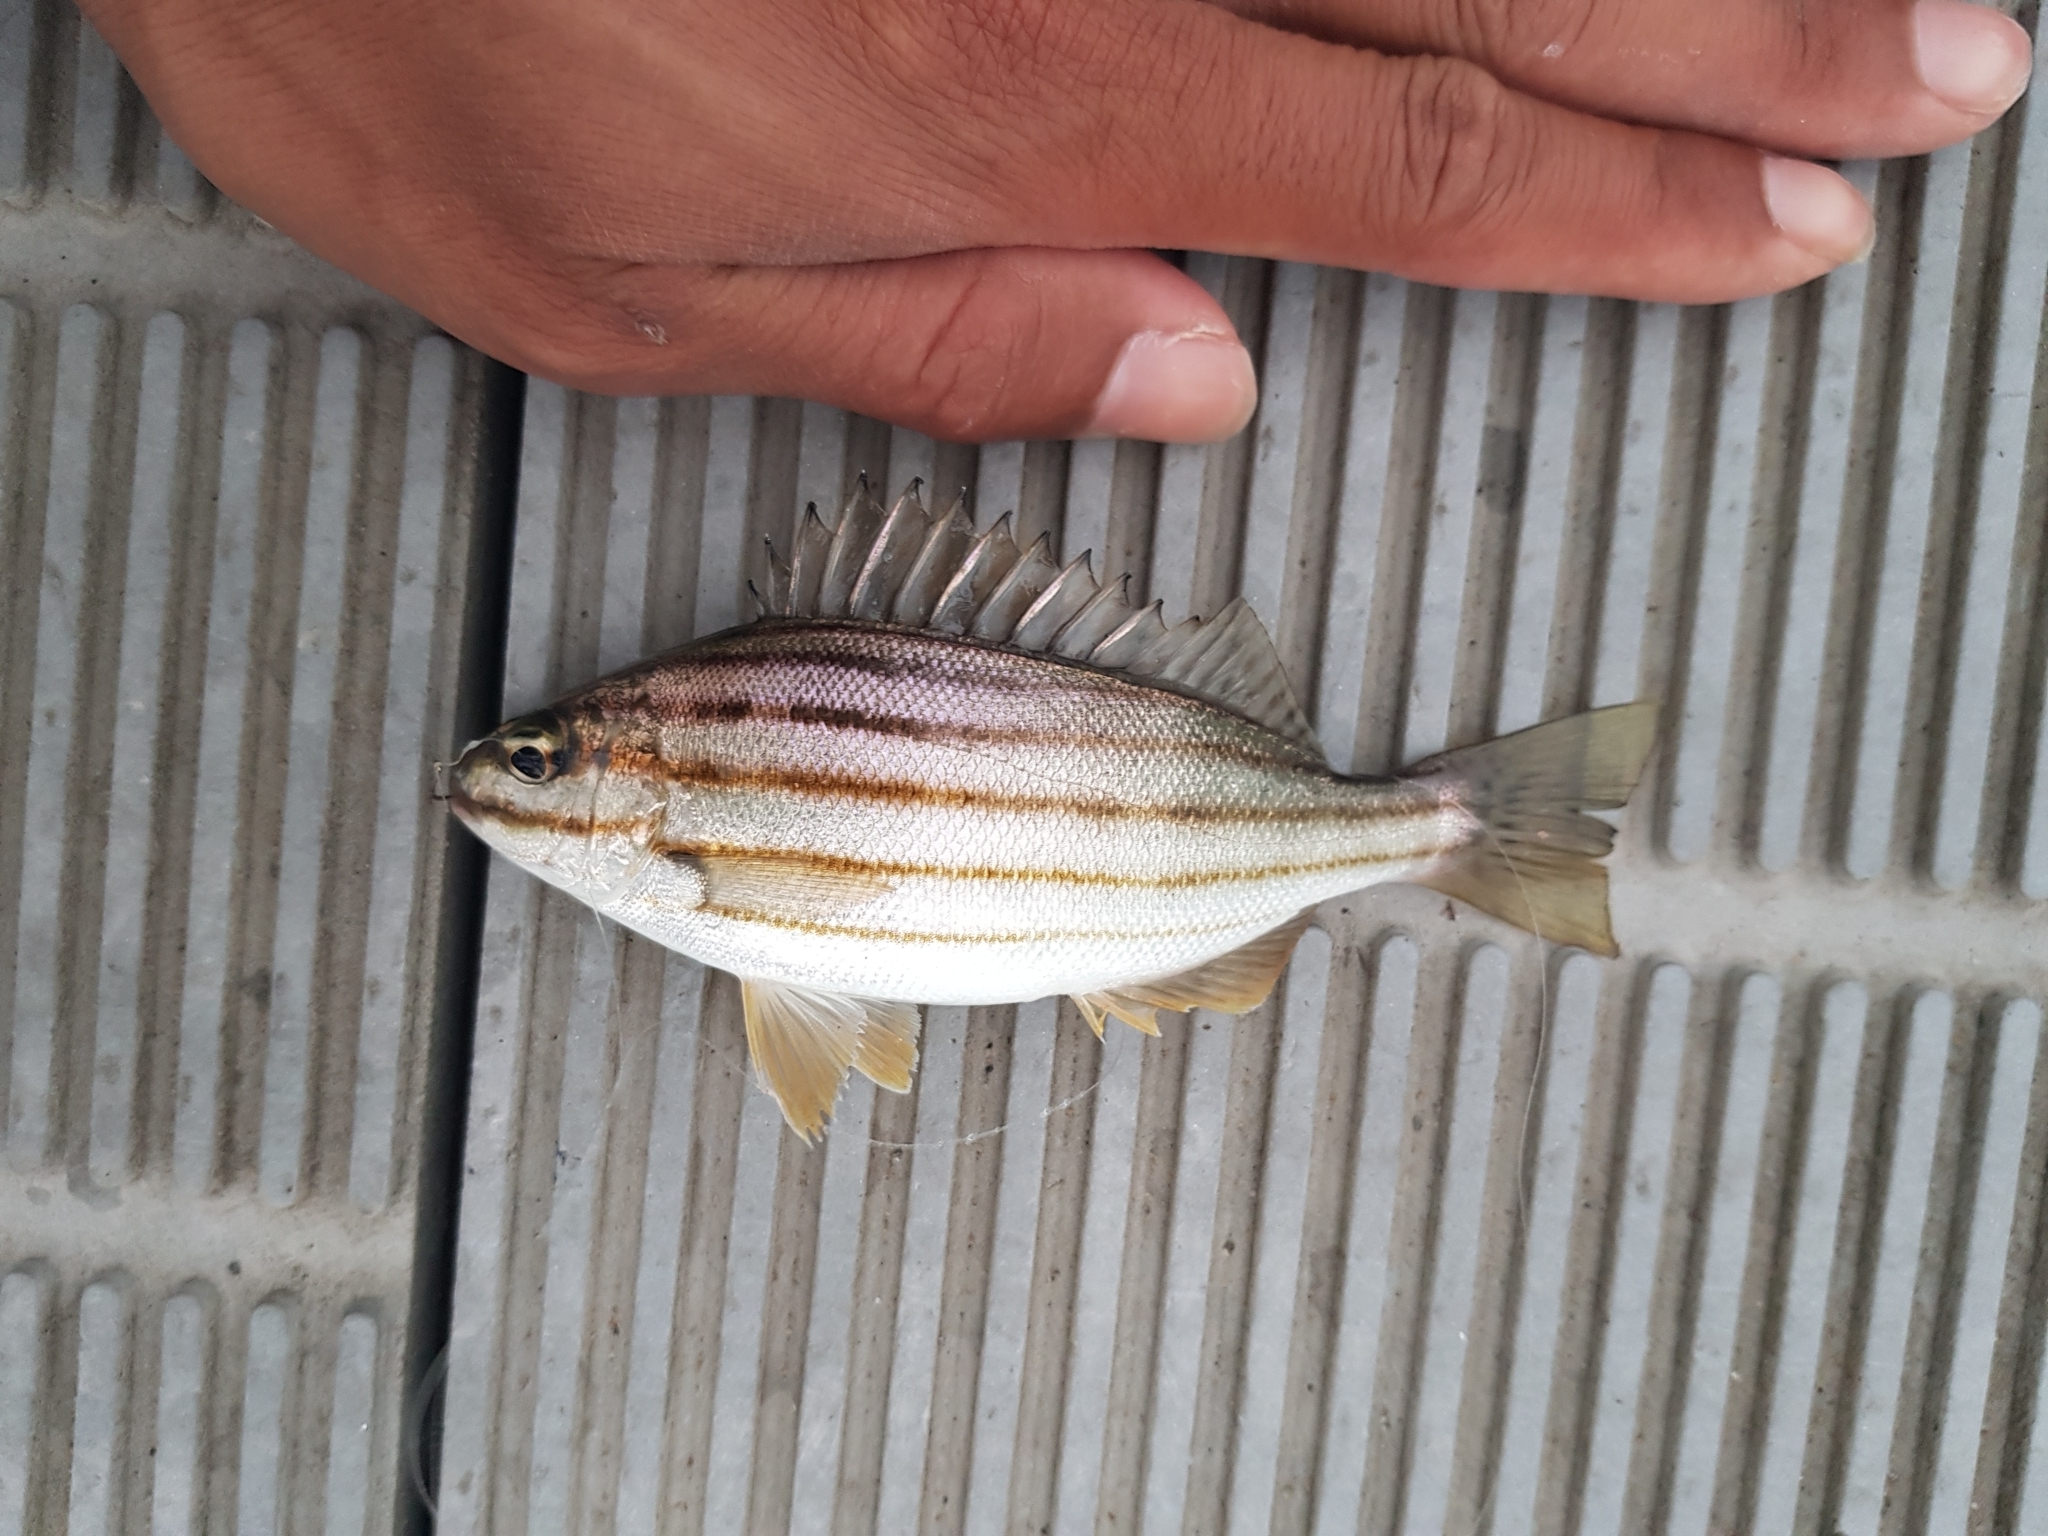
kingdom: Animalia
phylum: Chordata
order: Perciformes
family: Terapontidae
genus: Helotes
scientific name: Helotes sexlineatus
